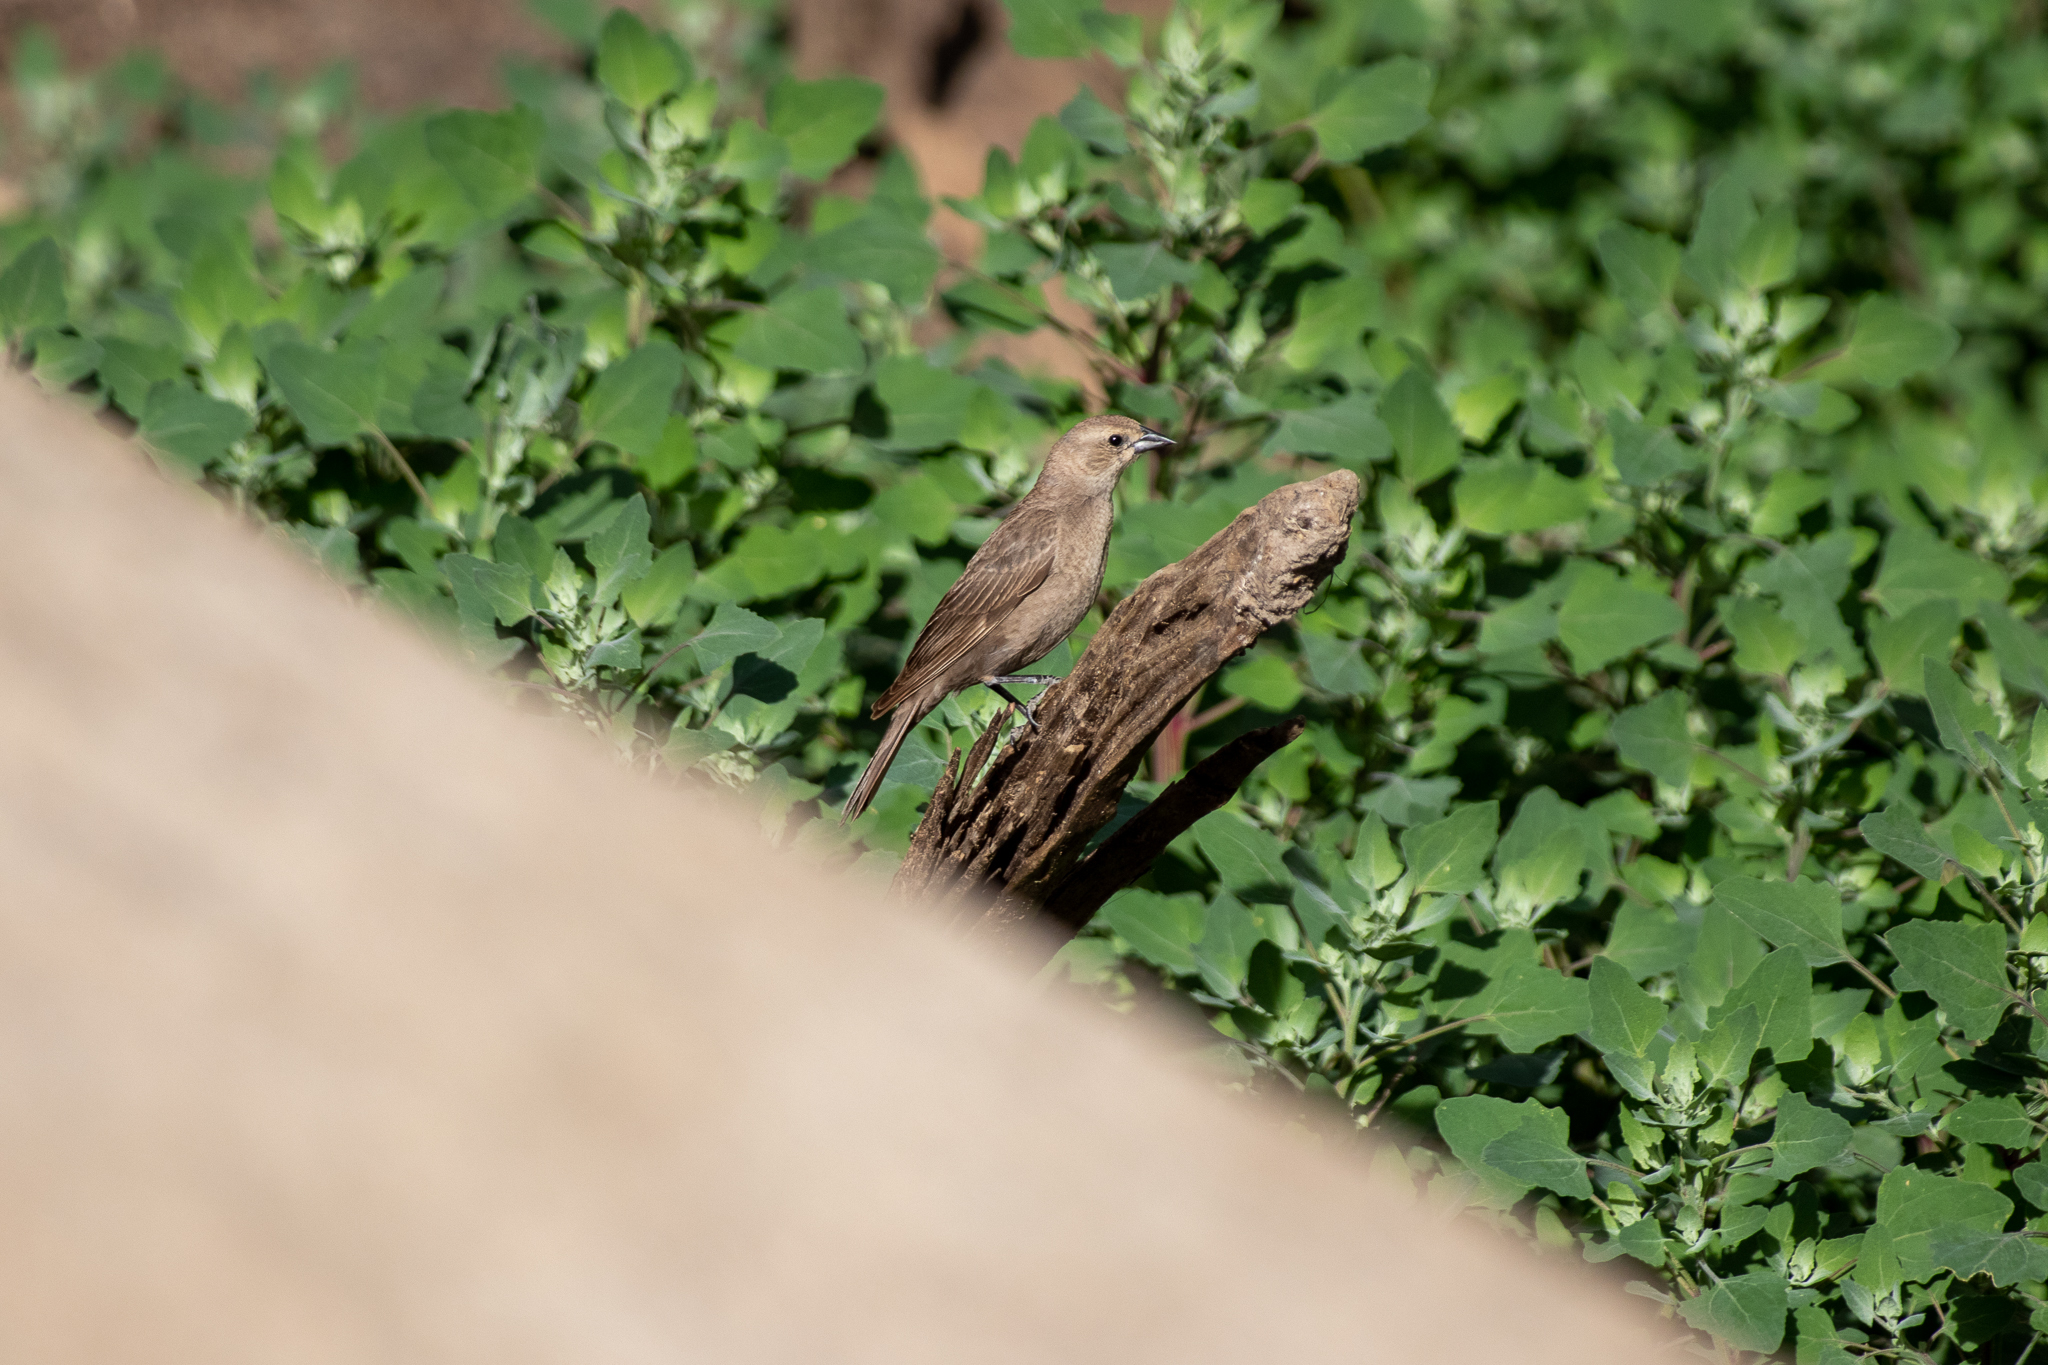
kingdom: Animalia
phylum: Chordata
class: Aves
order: Passeriformes
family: Icteridae
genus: Molothrus
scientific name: Molothrus ater
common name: Brown-headed cowbird
